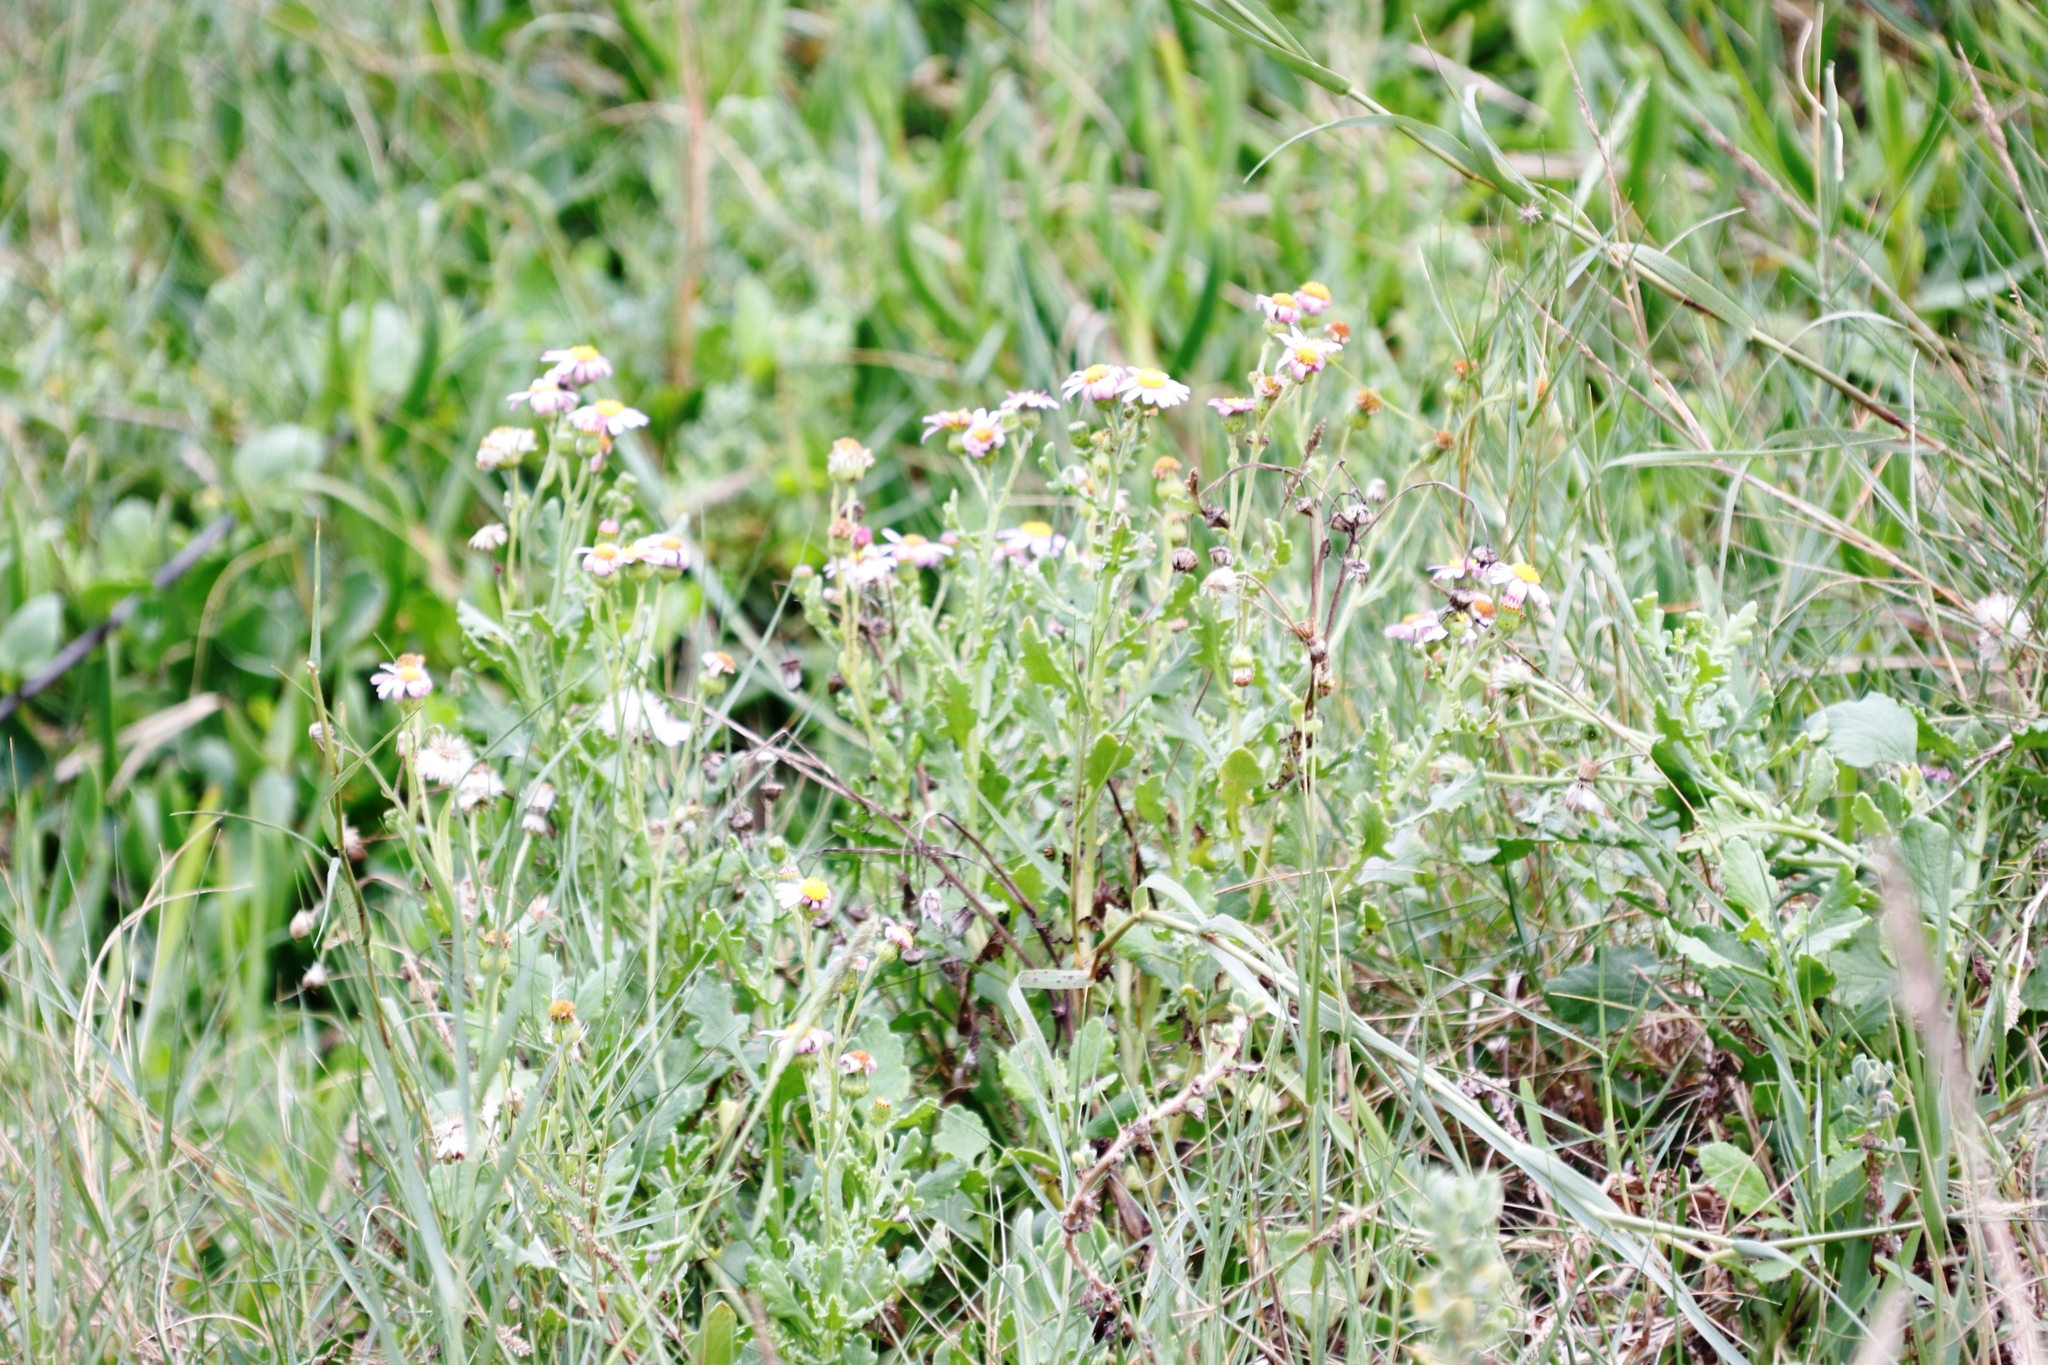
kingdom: Plantae
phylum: Tracheophyta
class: Magnoliopsida
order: Asterales
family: Asteraceae
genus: Senecio
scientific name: Senecio elegans
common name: Purple groundsel
